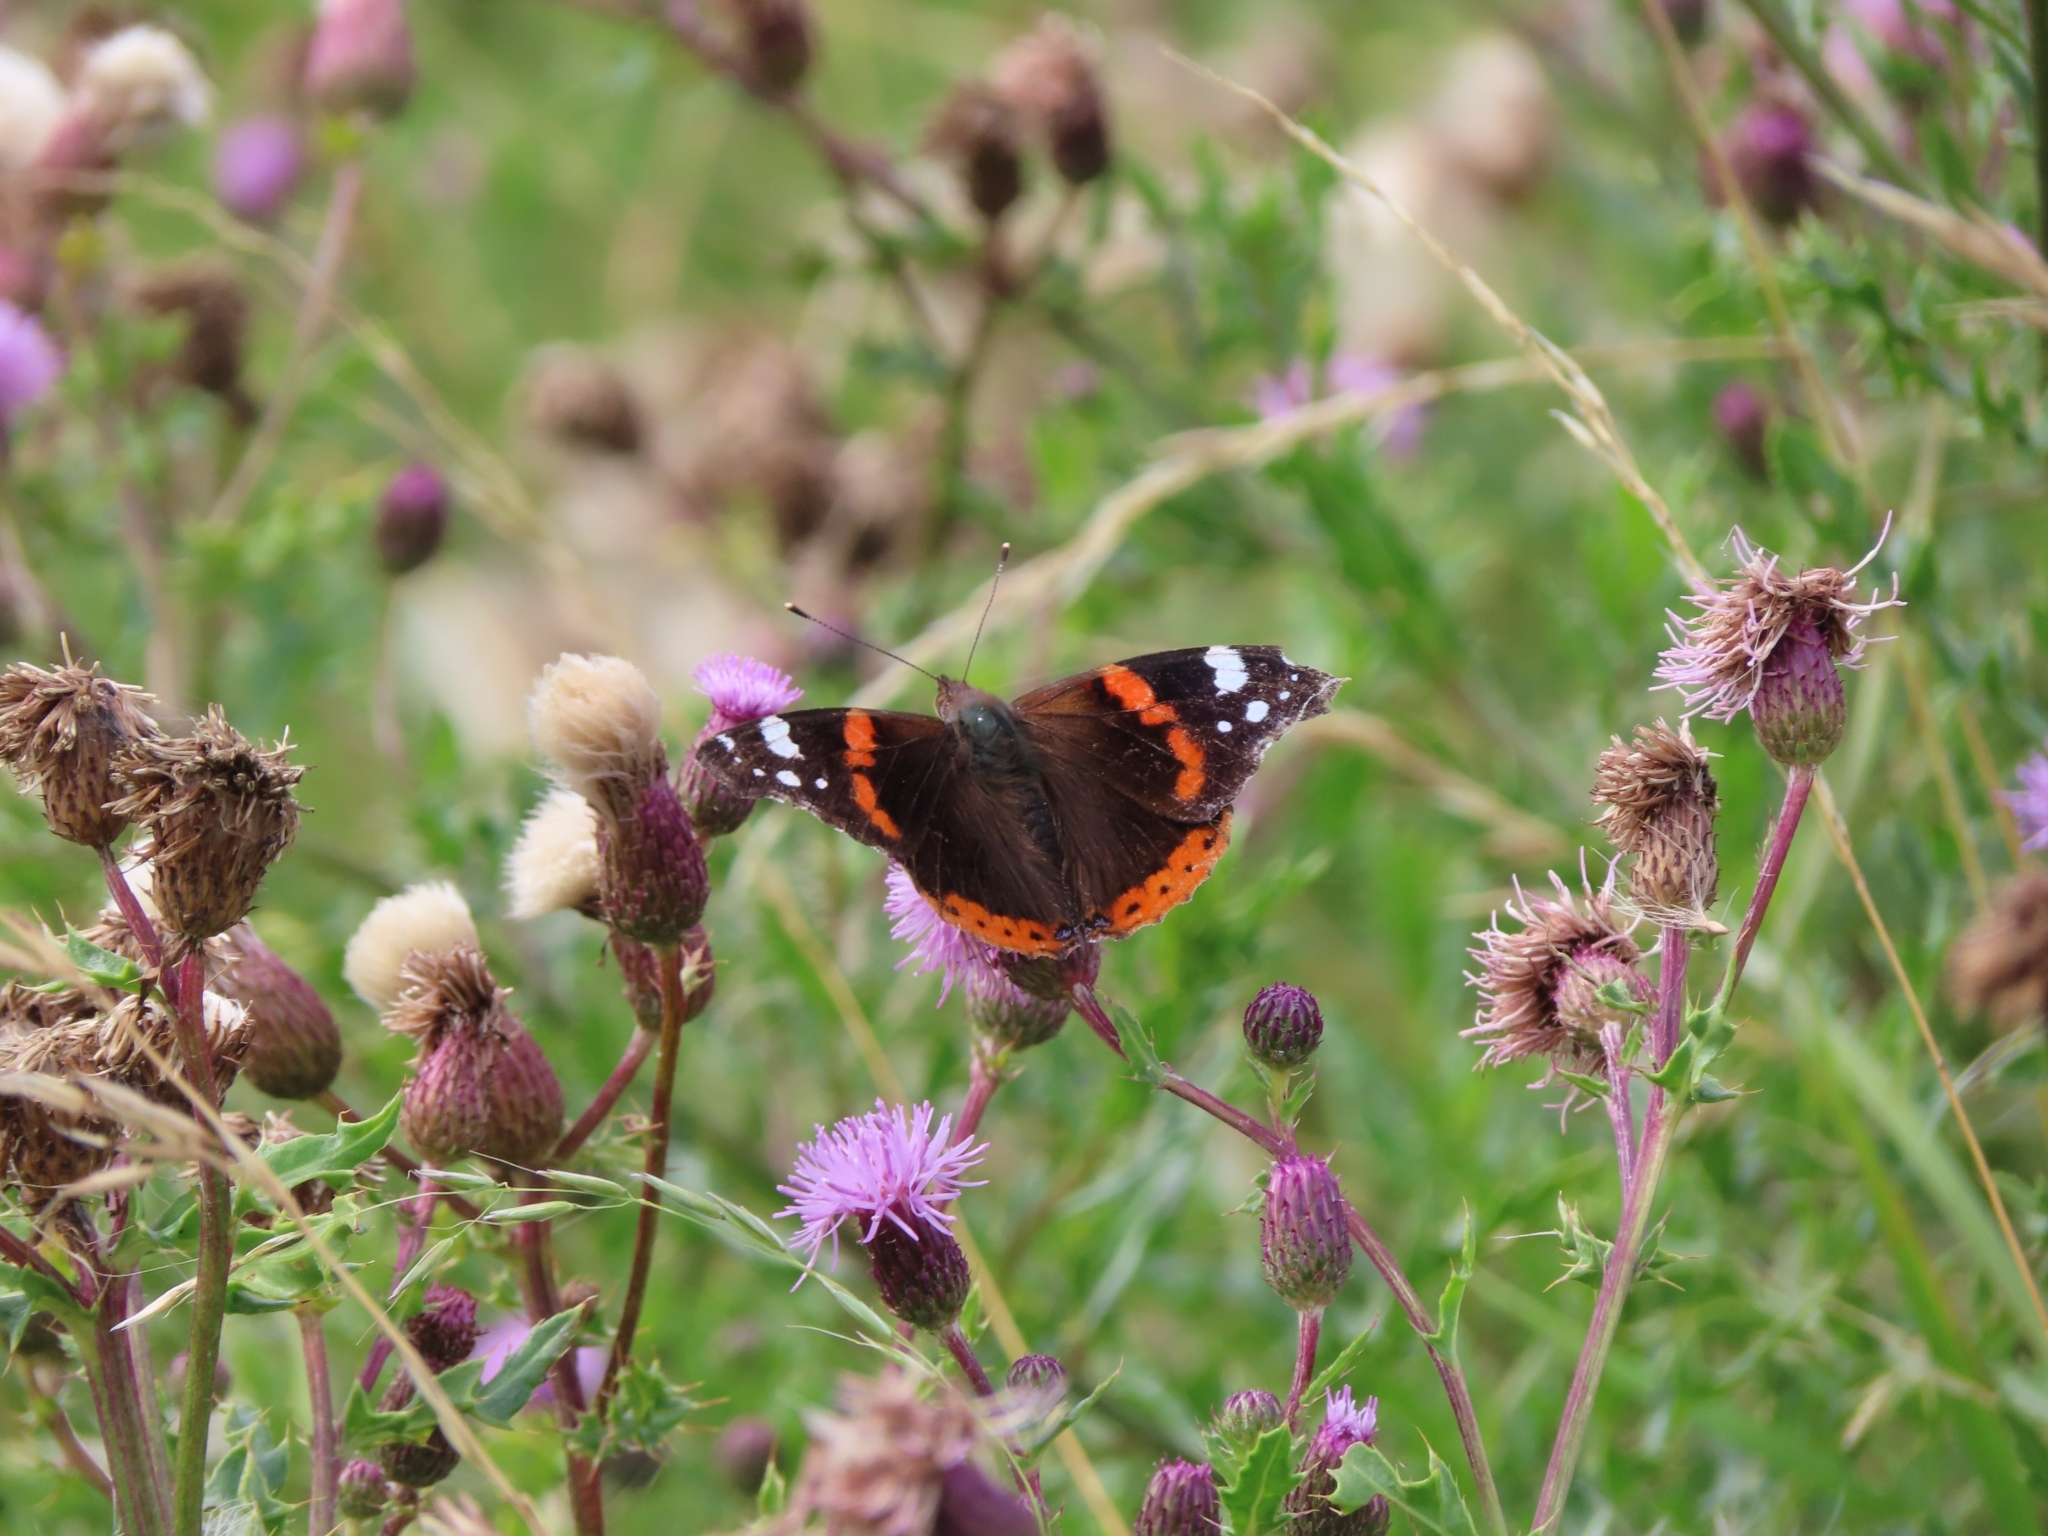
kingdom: Animalia
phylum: Arthropoda
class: Insecta
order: Lepidoptera
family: Nymphalidae
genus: Vanessa
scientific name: Vanessa atalanta
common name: Red admiral
